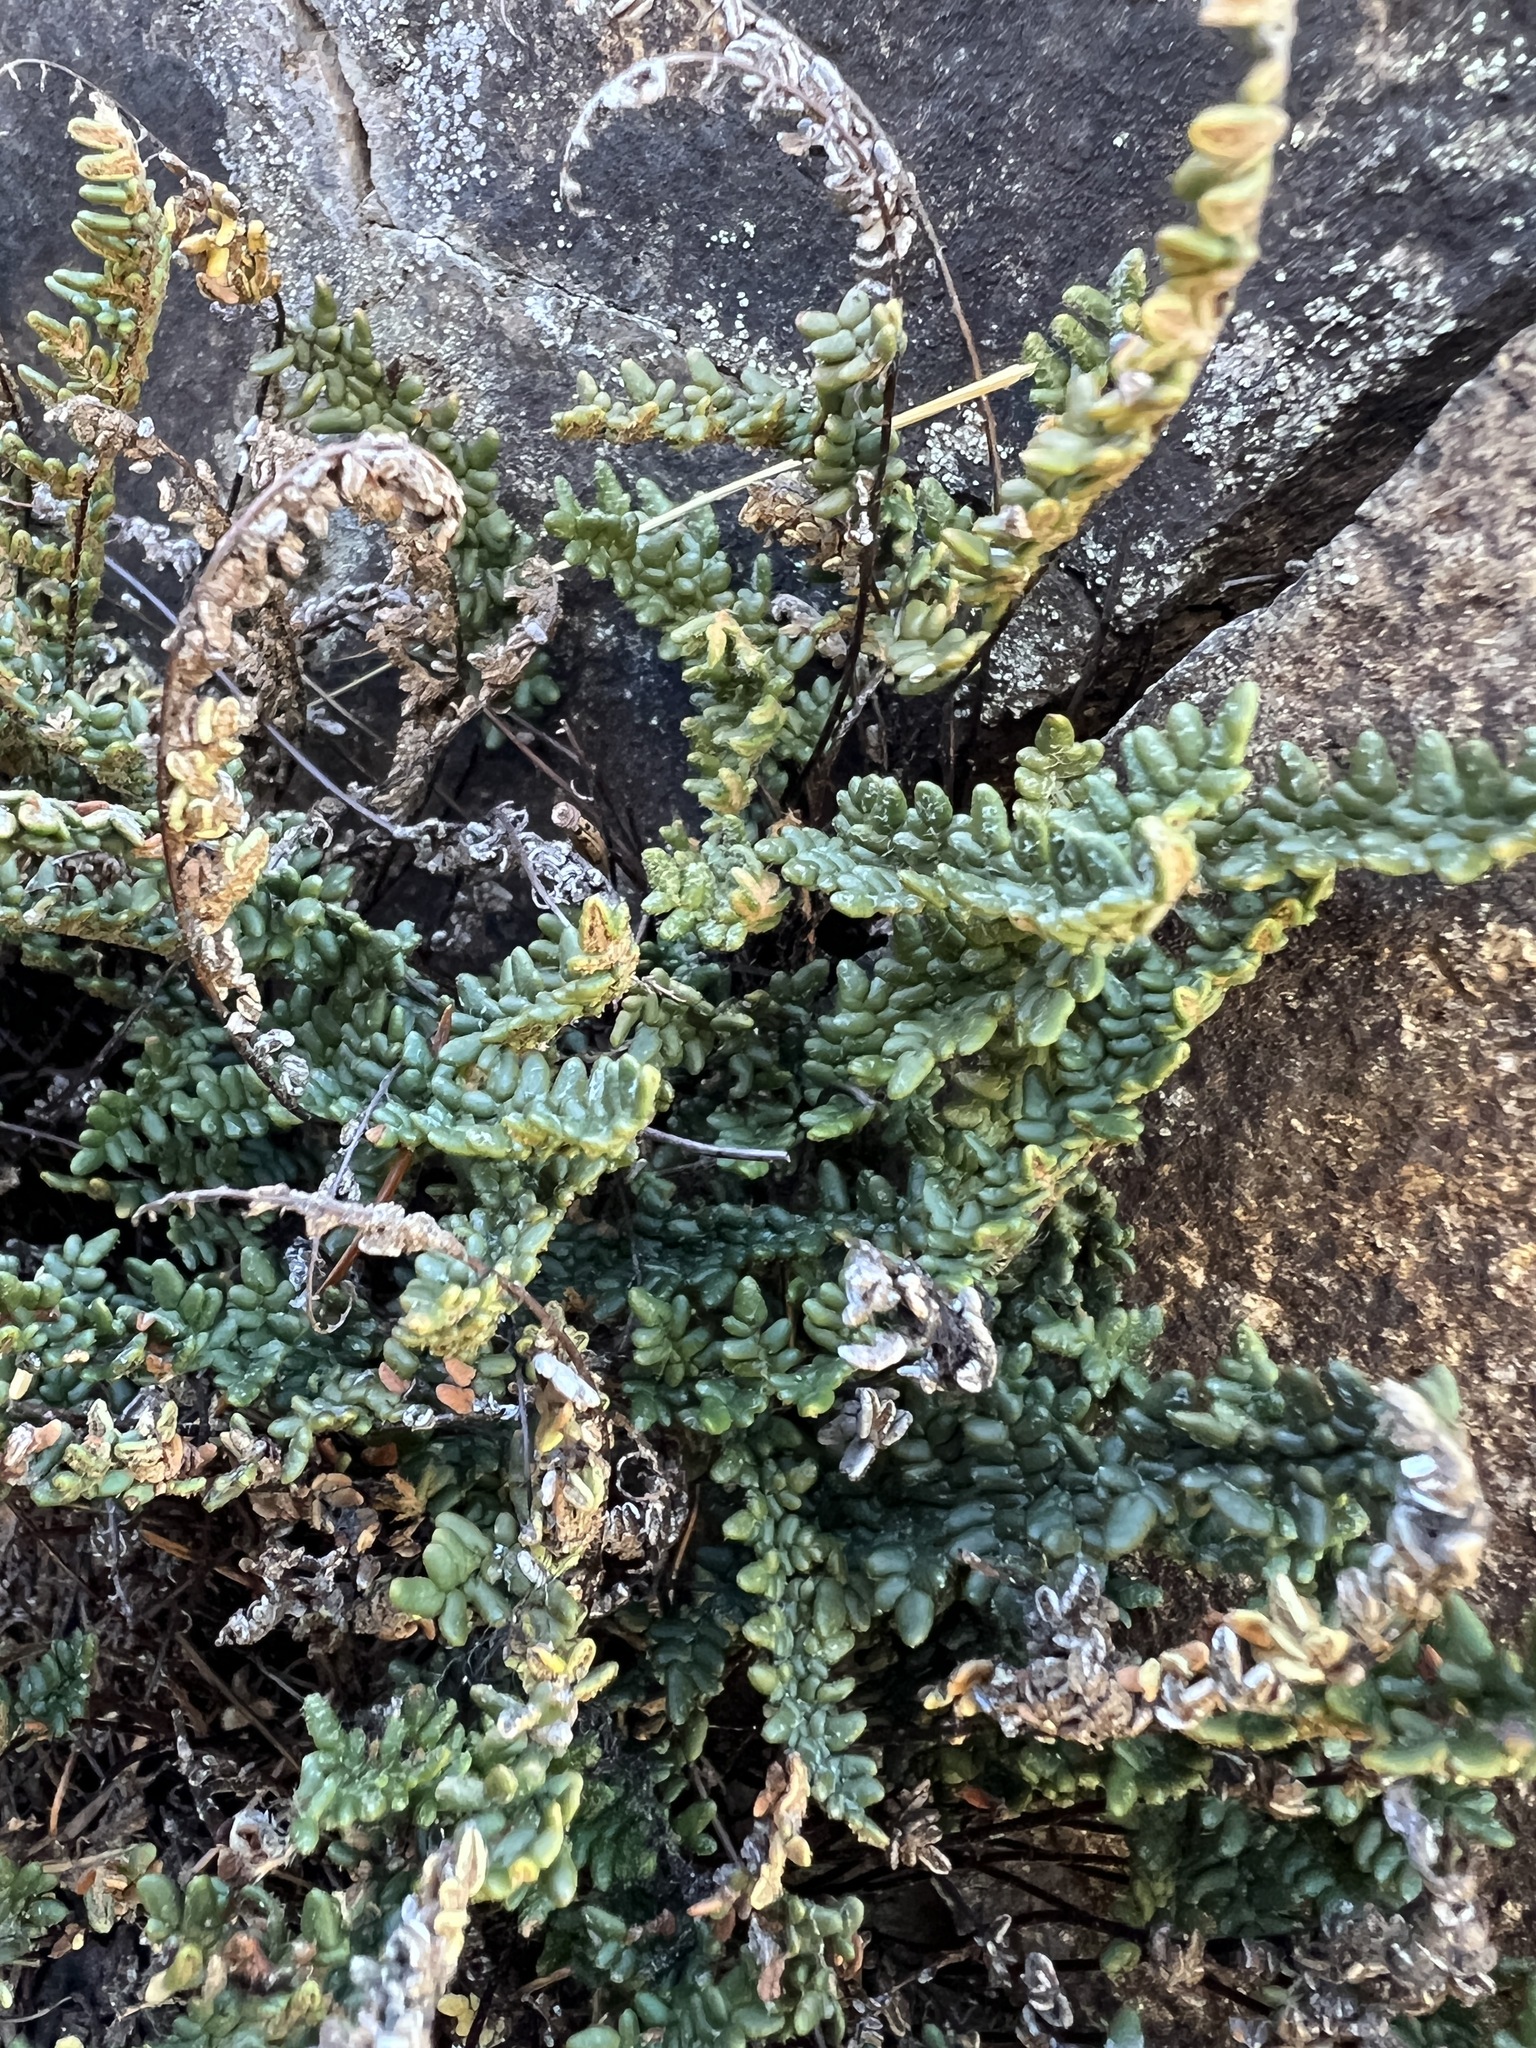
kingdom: Plantae
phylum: Tracheophyta
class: Polypodiopsida
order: Polypodiales
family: Pteridaceae
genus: Myriopteris
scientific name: Myriopteris gracillima
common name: Lace fern
